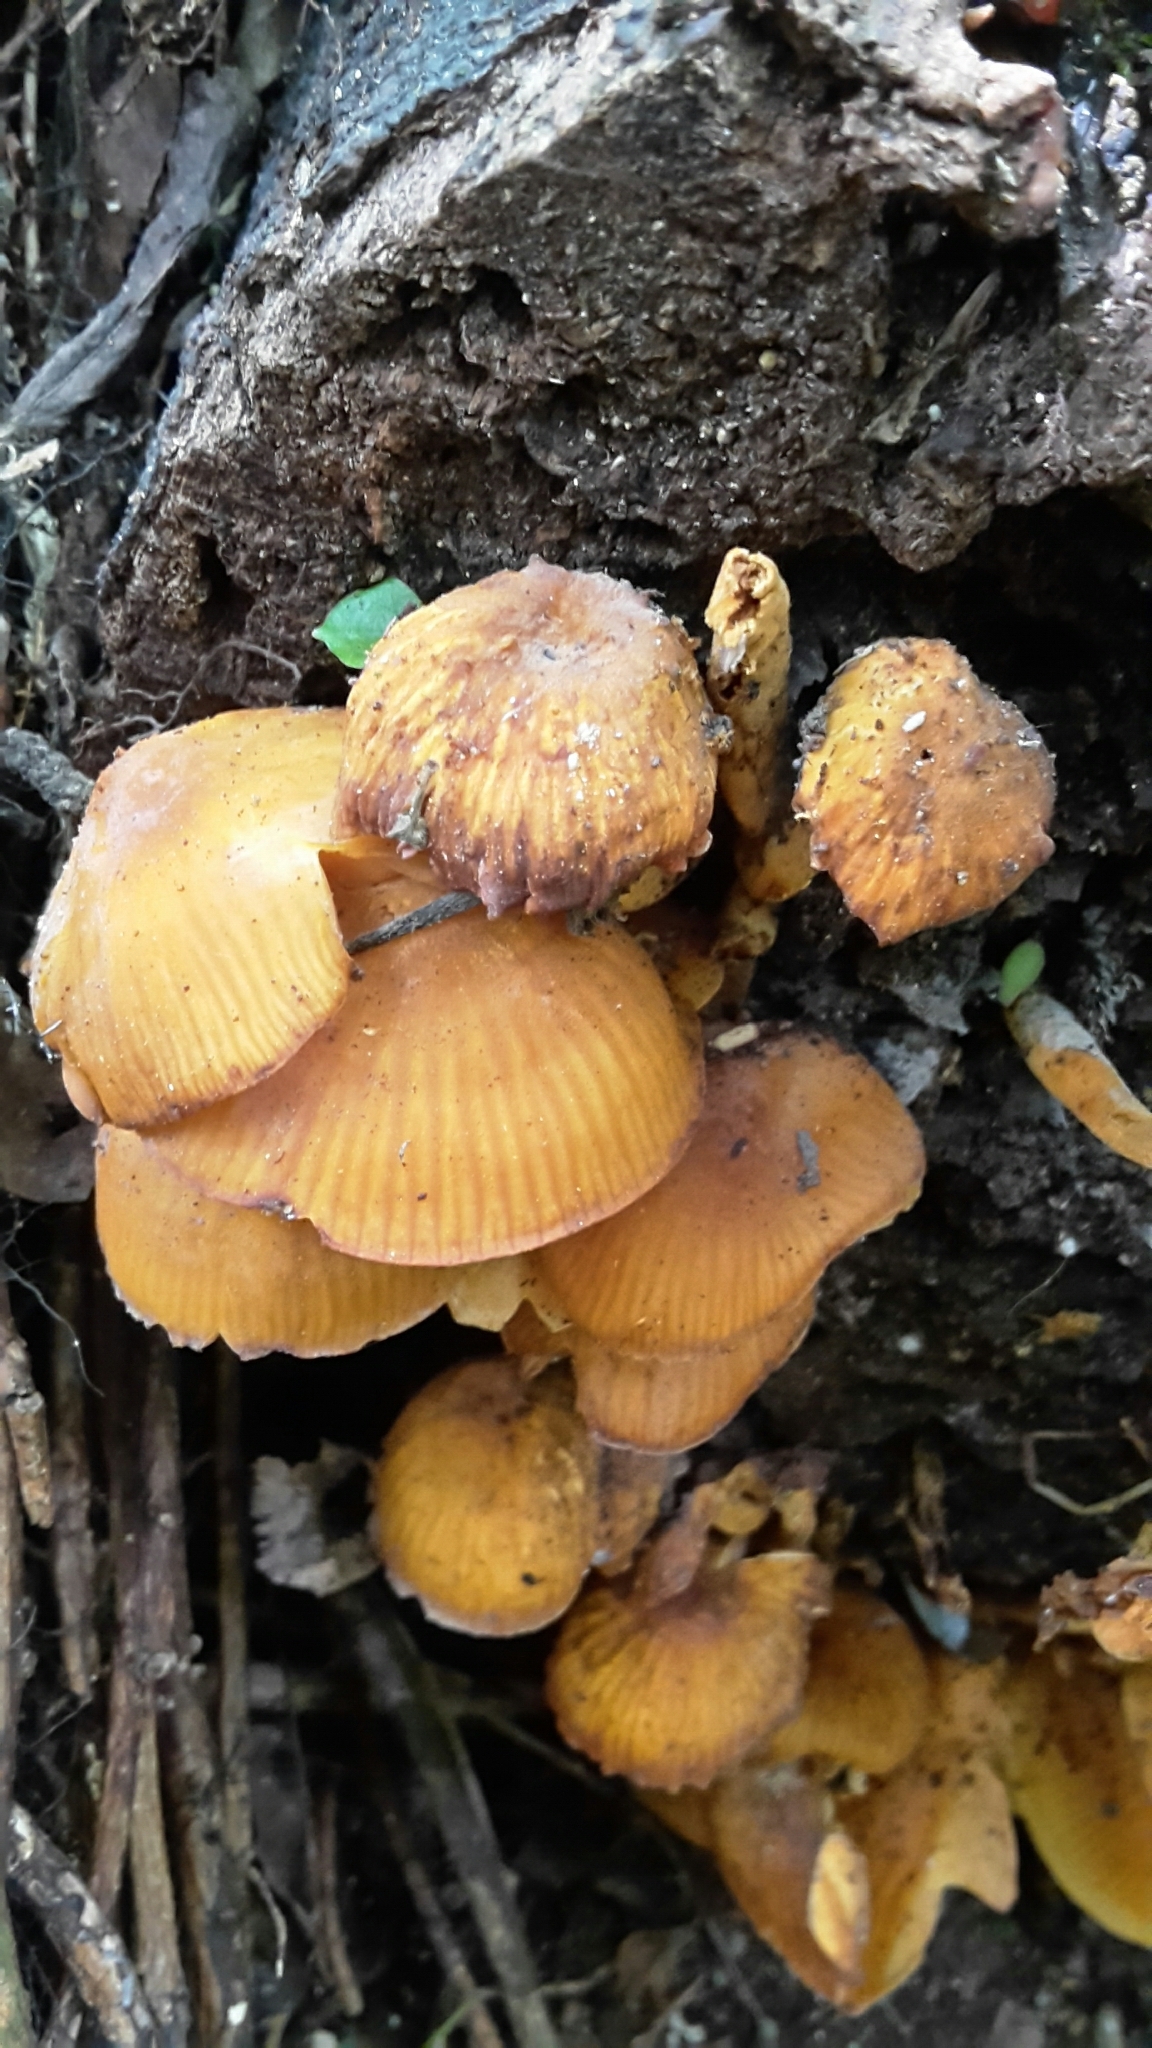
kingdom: Fungi
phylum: Basidiomycota
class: Agaricomycetes
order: Agaricales
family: Mycenaceae
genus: Heimiomyces
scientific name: Heimiomyces velutipes
